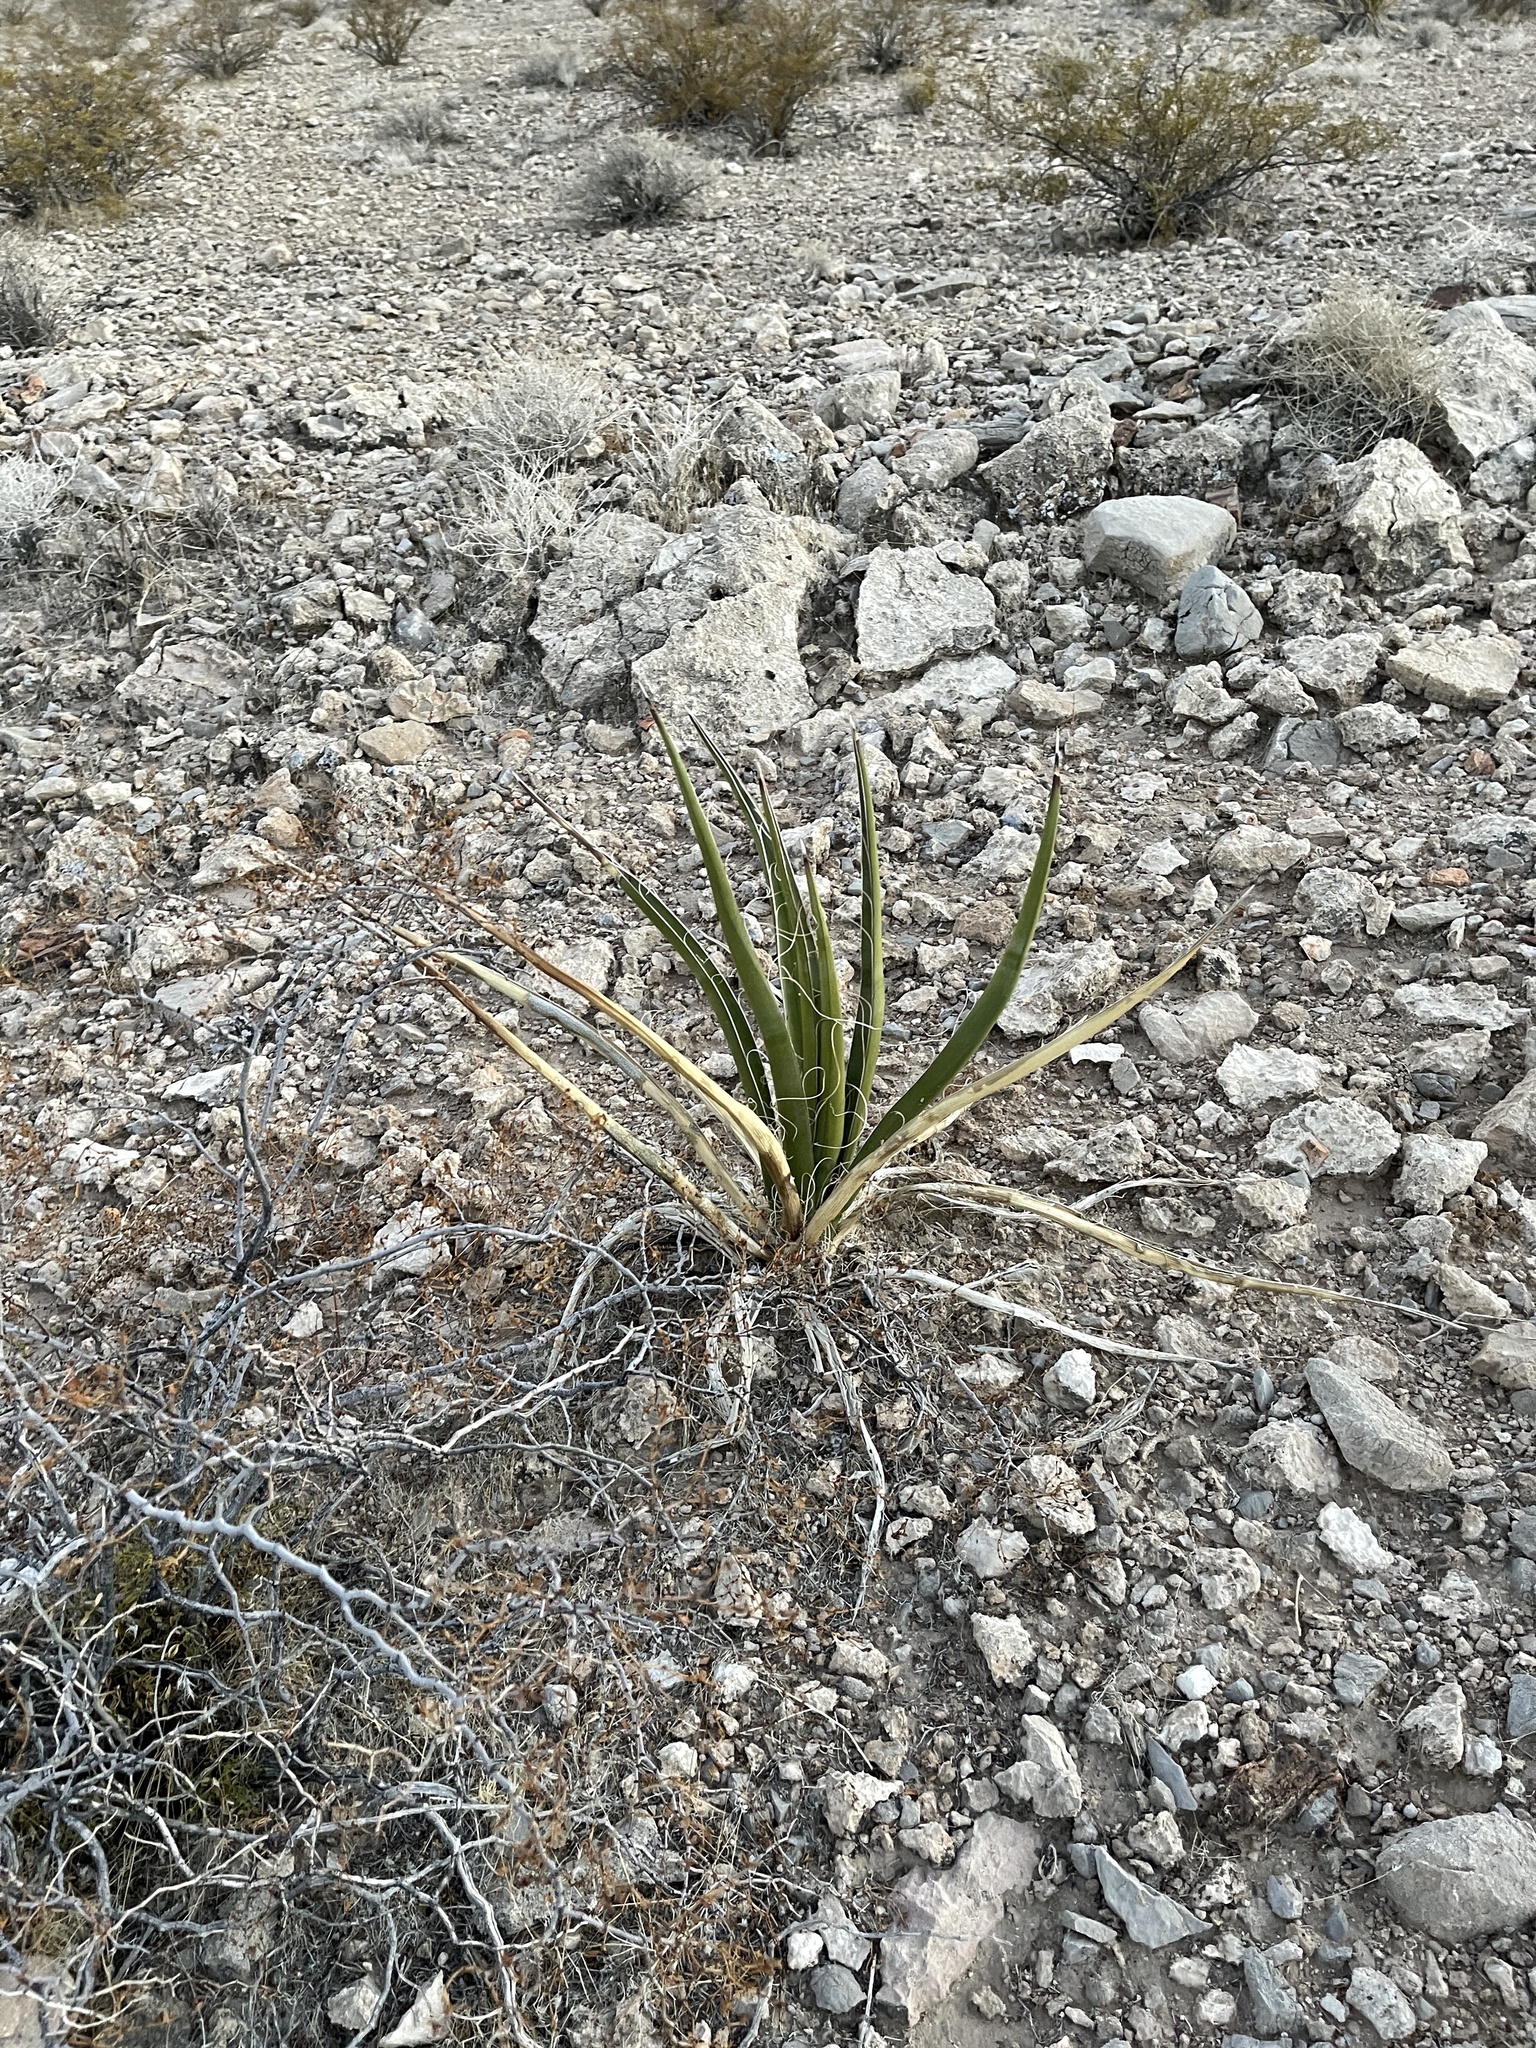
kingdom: Plantae
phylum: Tracheophyta
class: Liliopsida
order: Asparagales
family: Asparagaceae
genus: Yucca
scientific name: Yucca baccata
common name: Banana yucca
